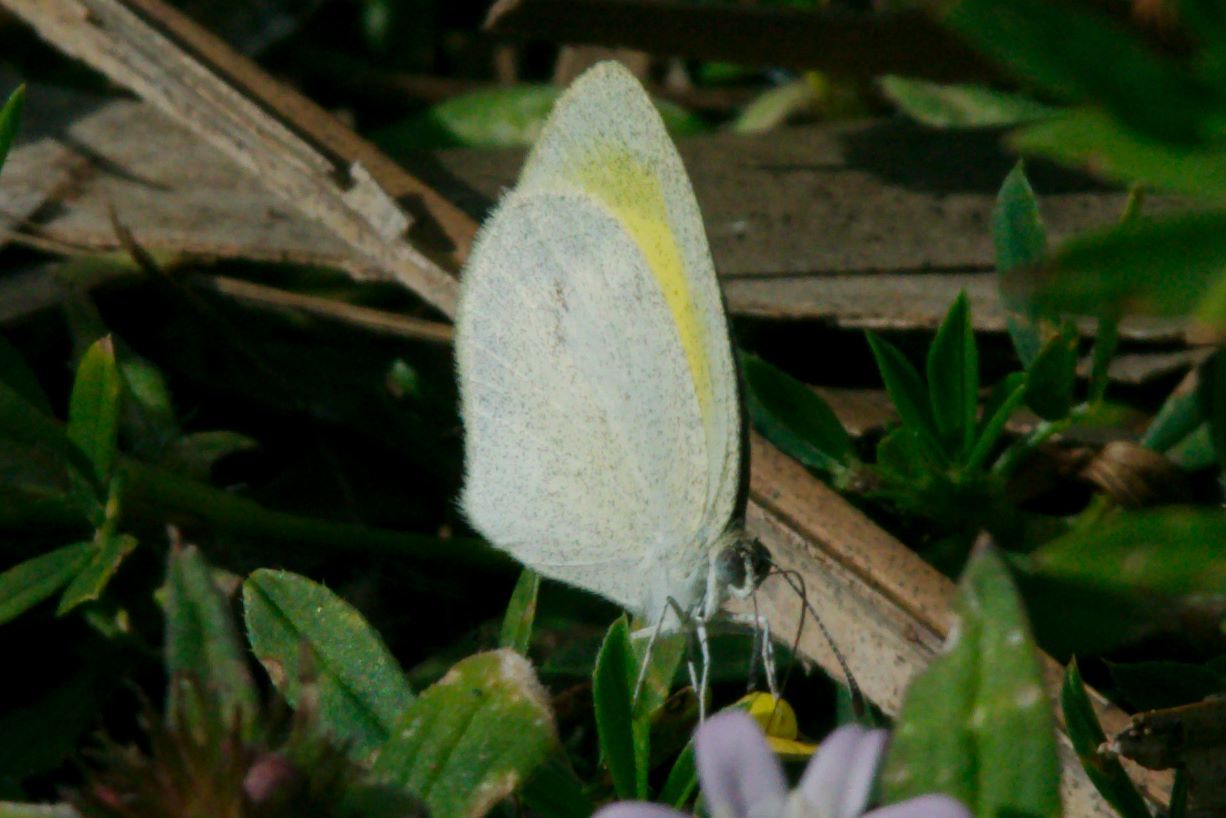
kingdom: Animalia
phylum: Arthropoda
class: Insecta
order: Lepidoptera
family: Pieridae
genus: Eurema
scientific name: Eurema daira
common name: Barred sulphur
